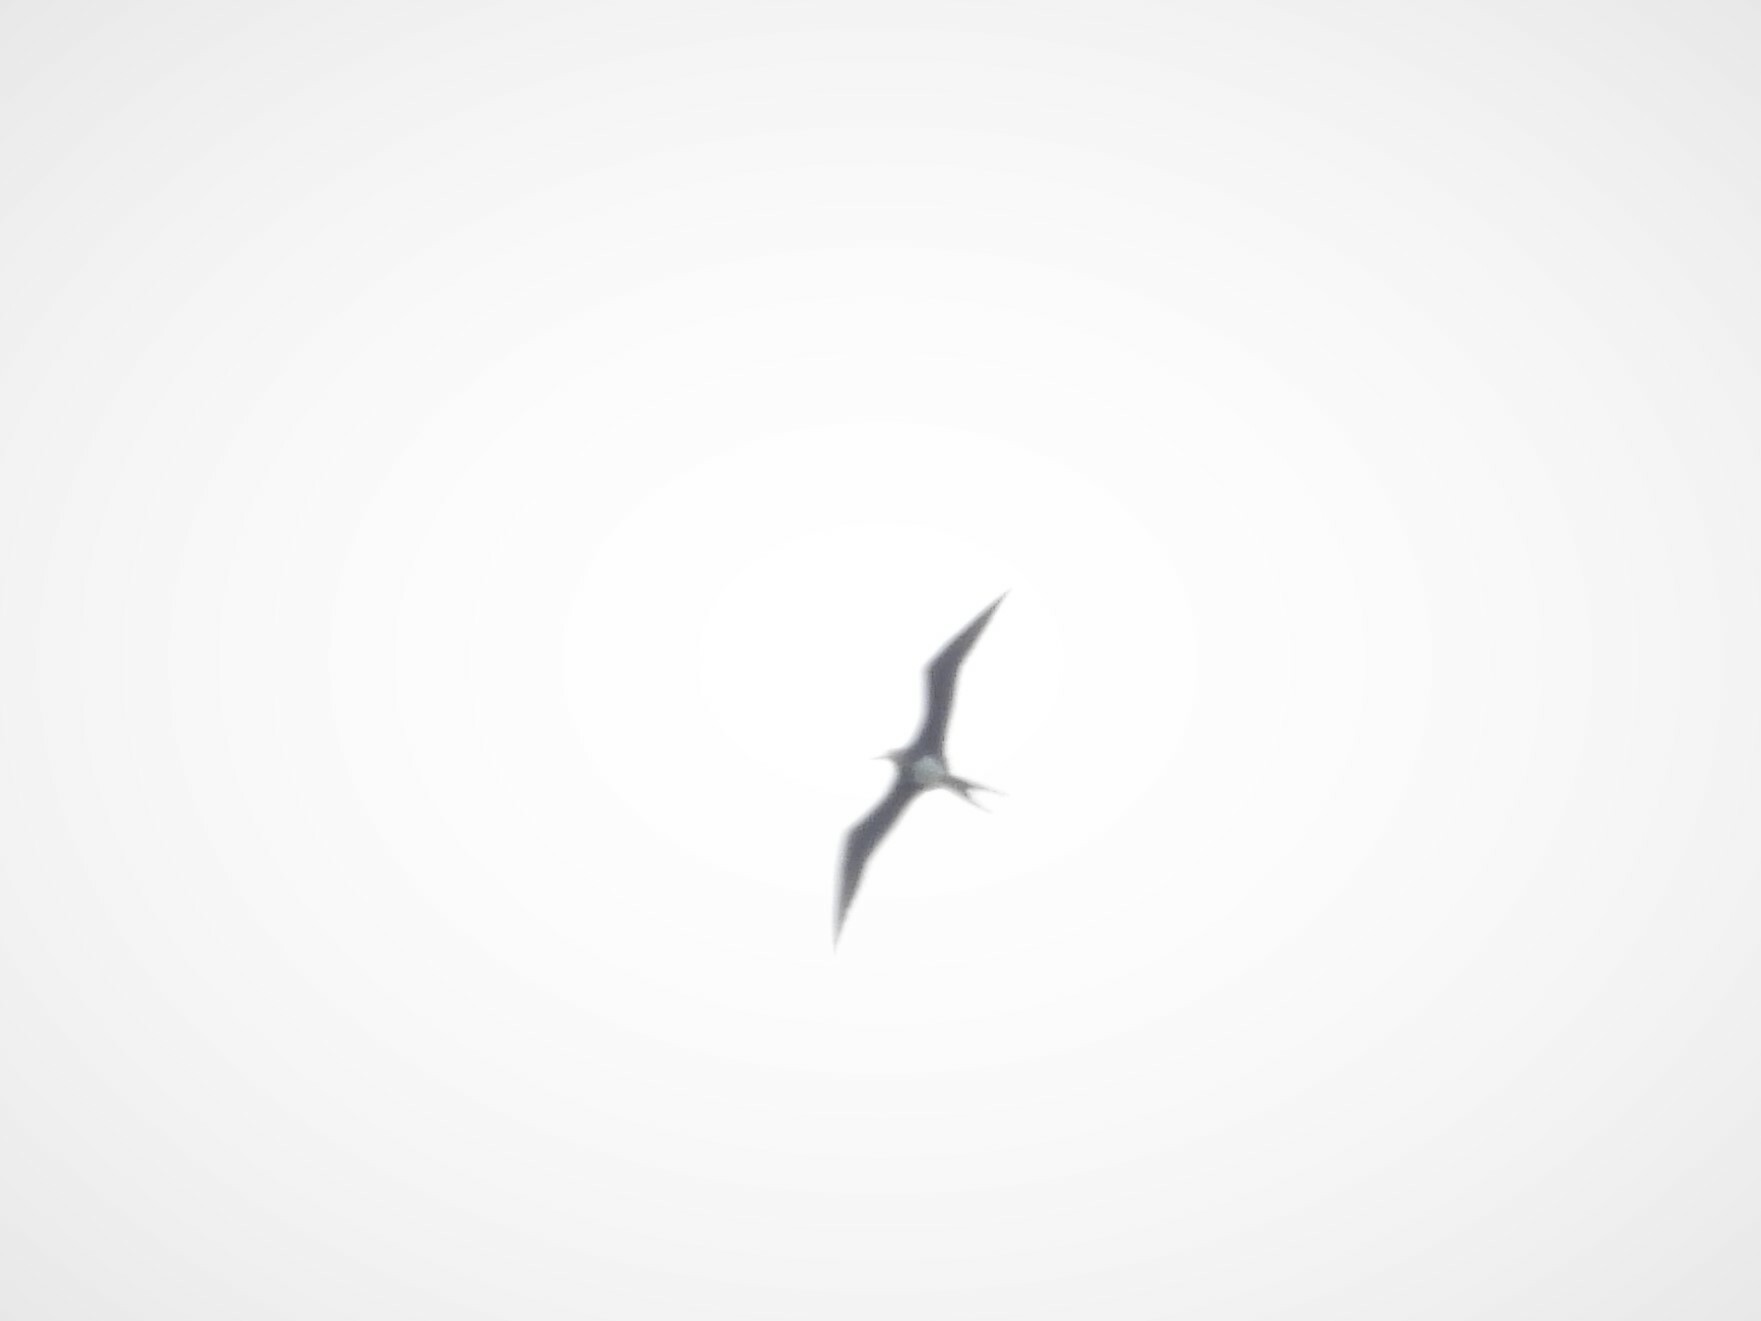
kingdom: Animalia
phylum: Chordata
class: Aves
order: Suliformes
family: Fregatidae
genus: Fregata
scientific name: Fregata ariel
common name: Lesser frigatebird
